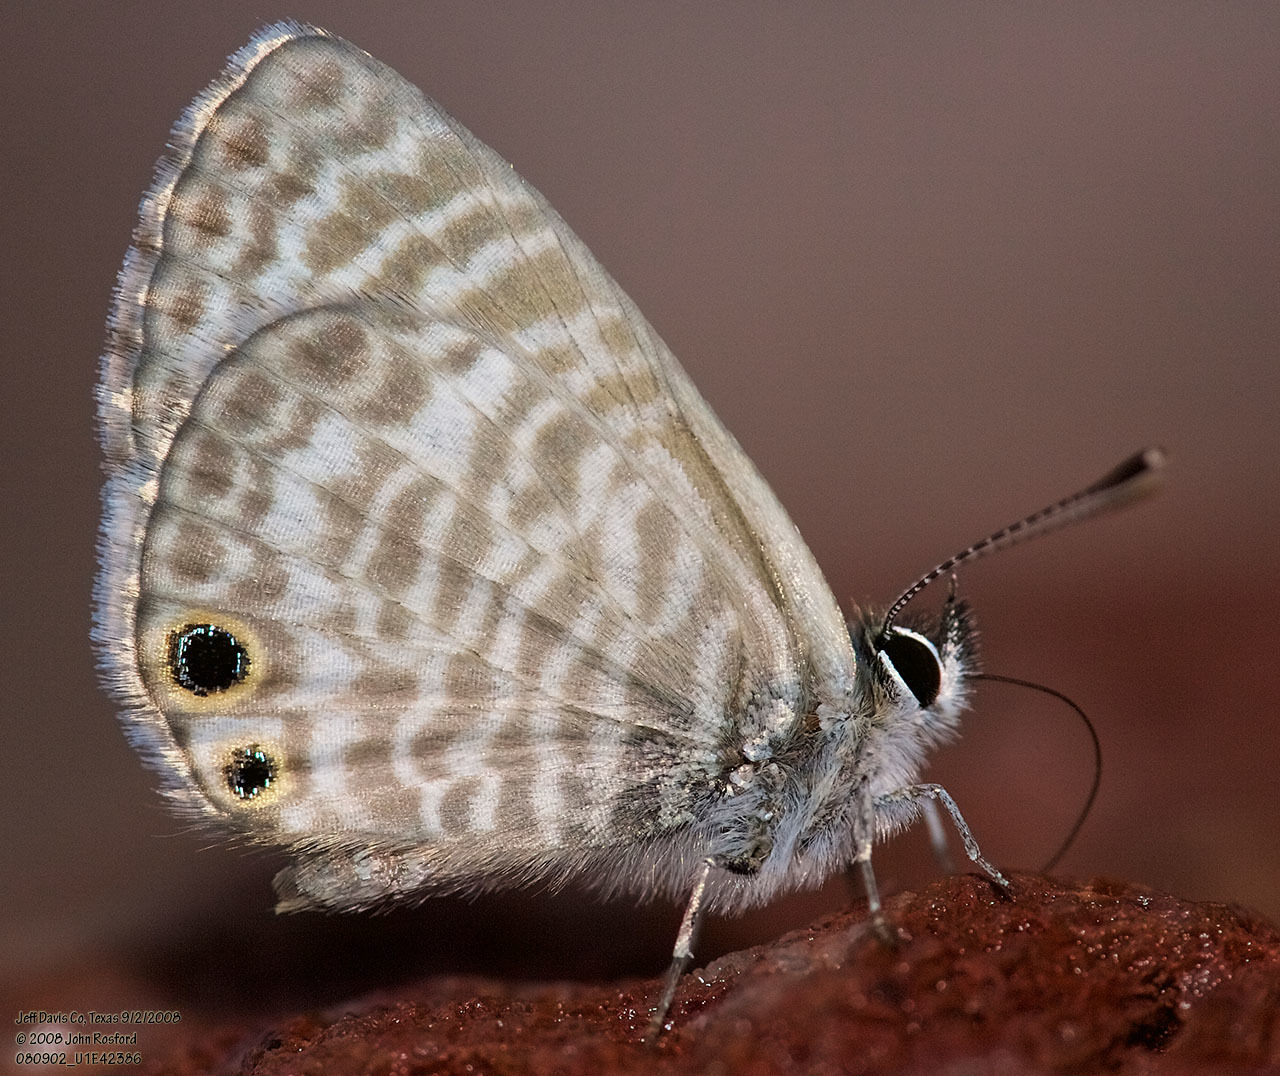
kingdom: Animalia
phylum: Arthropoda
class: Insecta
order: Lepidoptera
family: Lycaenidae
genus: Leptotes
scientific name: Leptotes marina
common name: Marine blue
